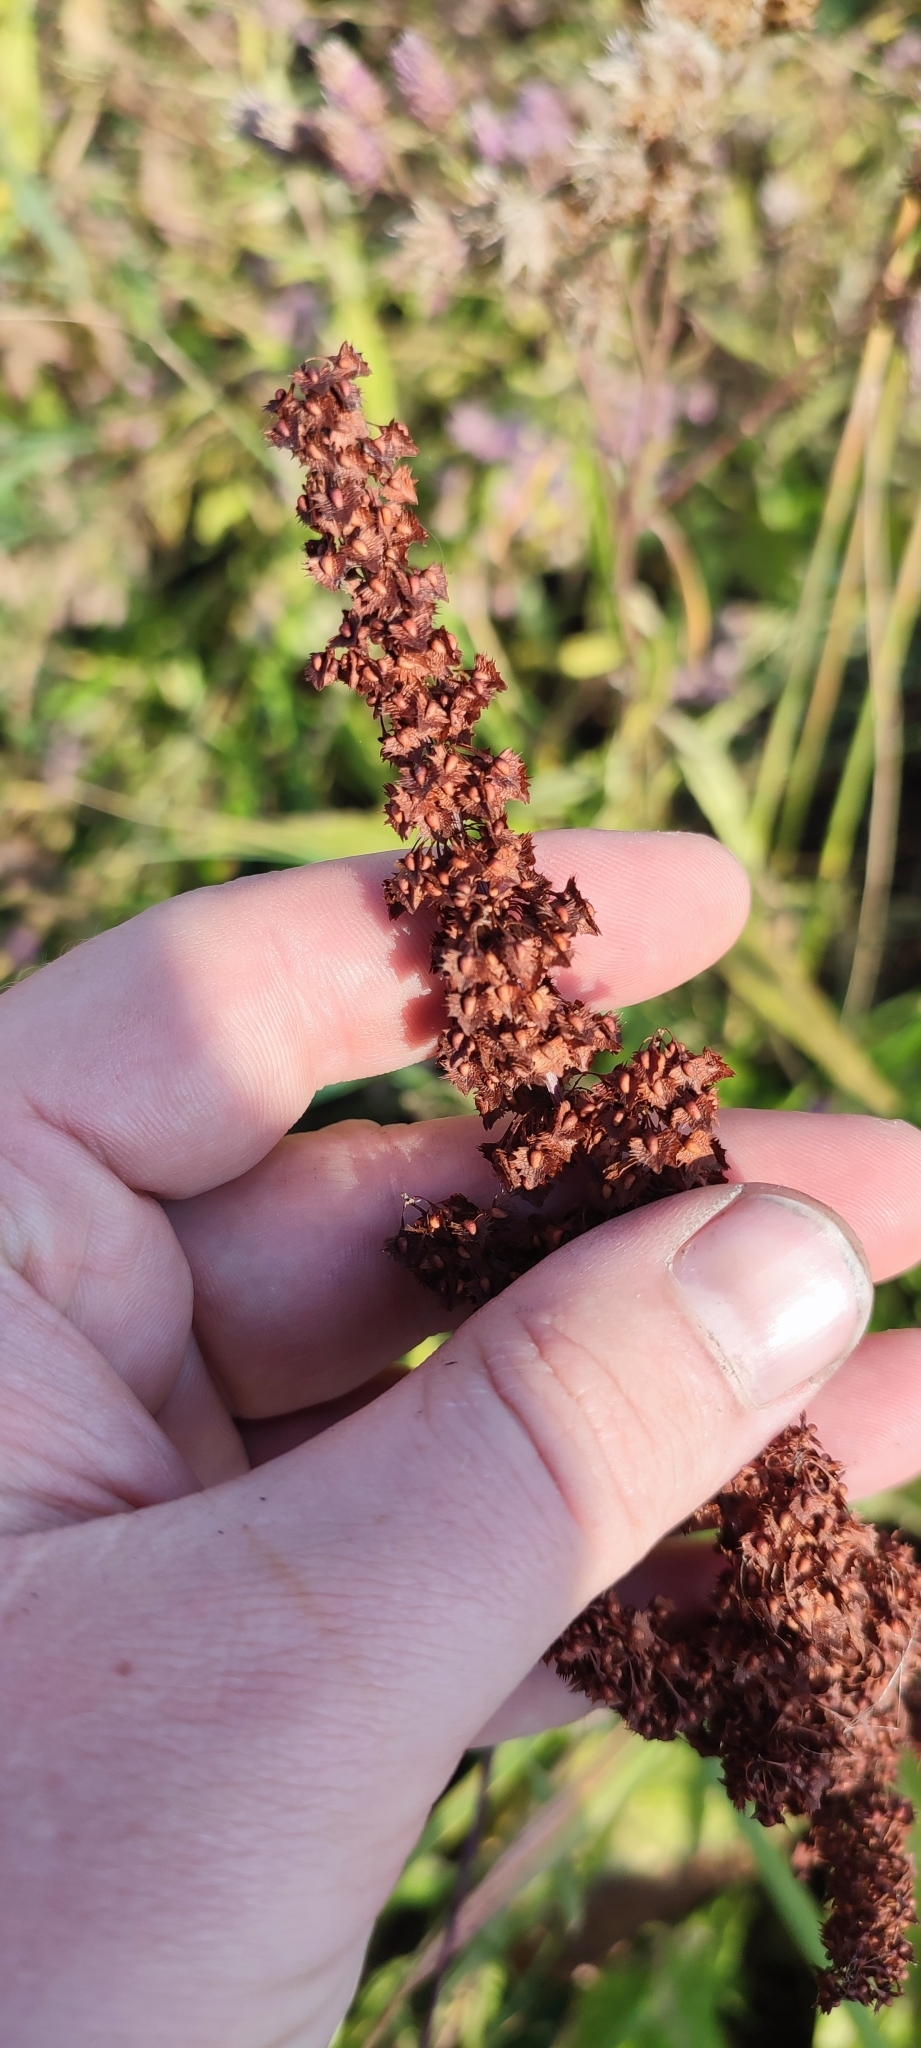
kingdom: Plantae
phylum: Tracheophyta
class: Magnoliopsida
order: Caryophyllales
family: Polygonaceae
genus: Rumex
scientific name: Rumex stenophyllus
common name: Narrowleaf dock
